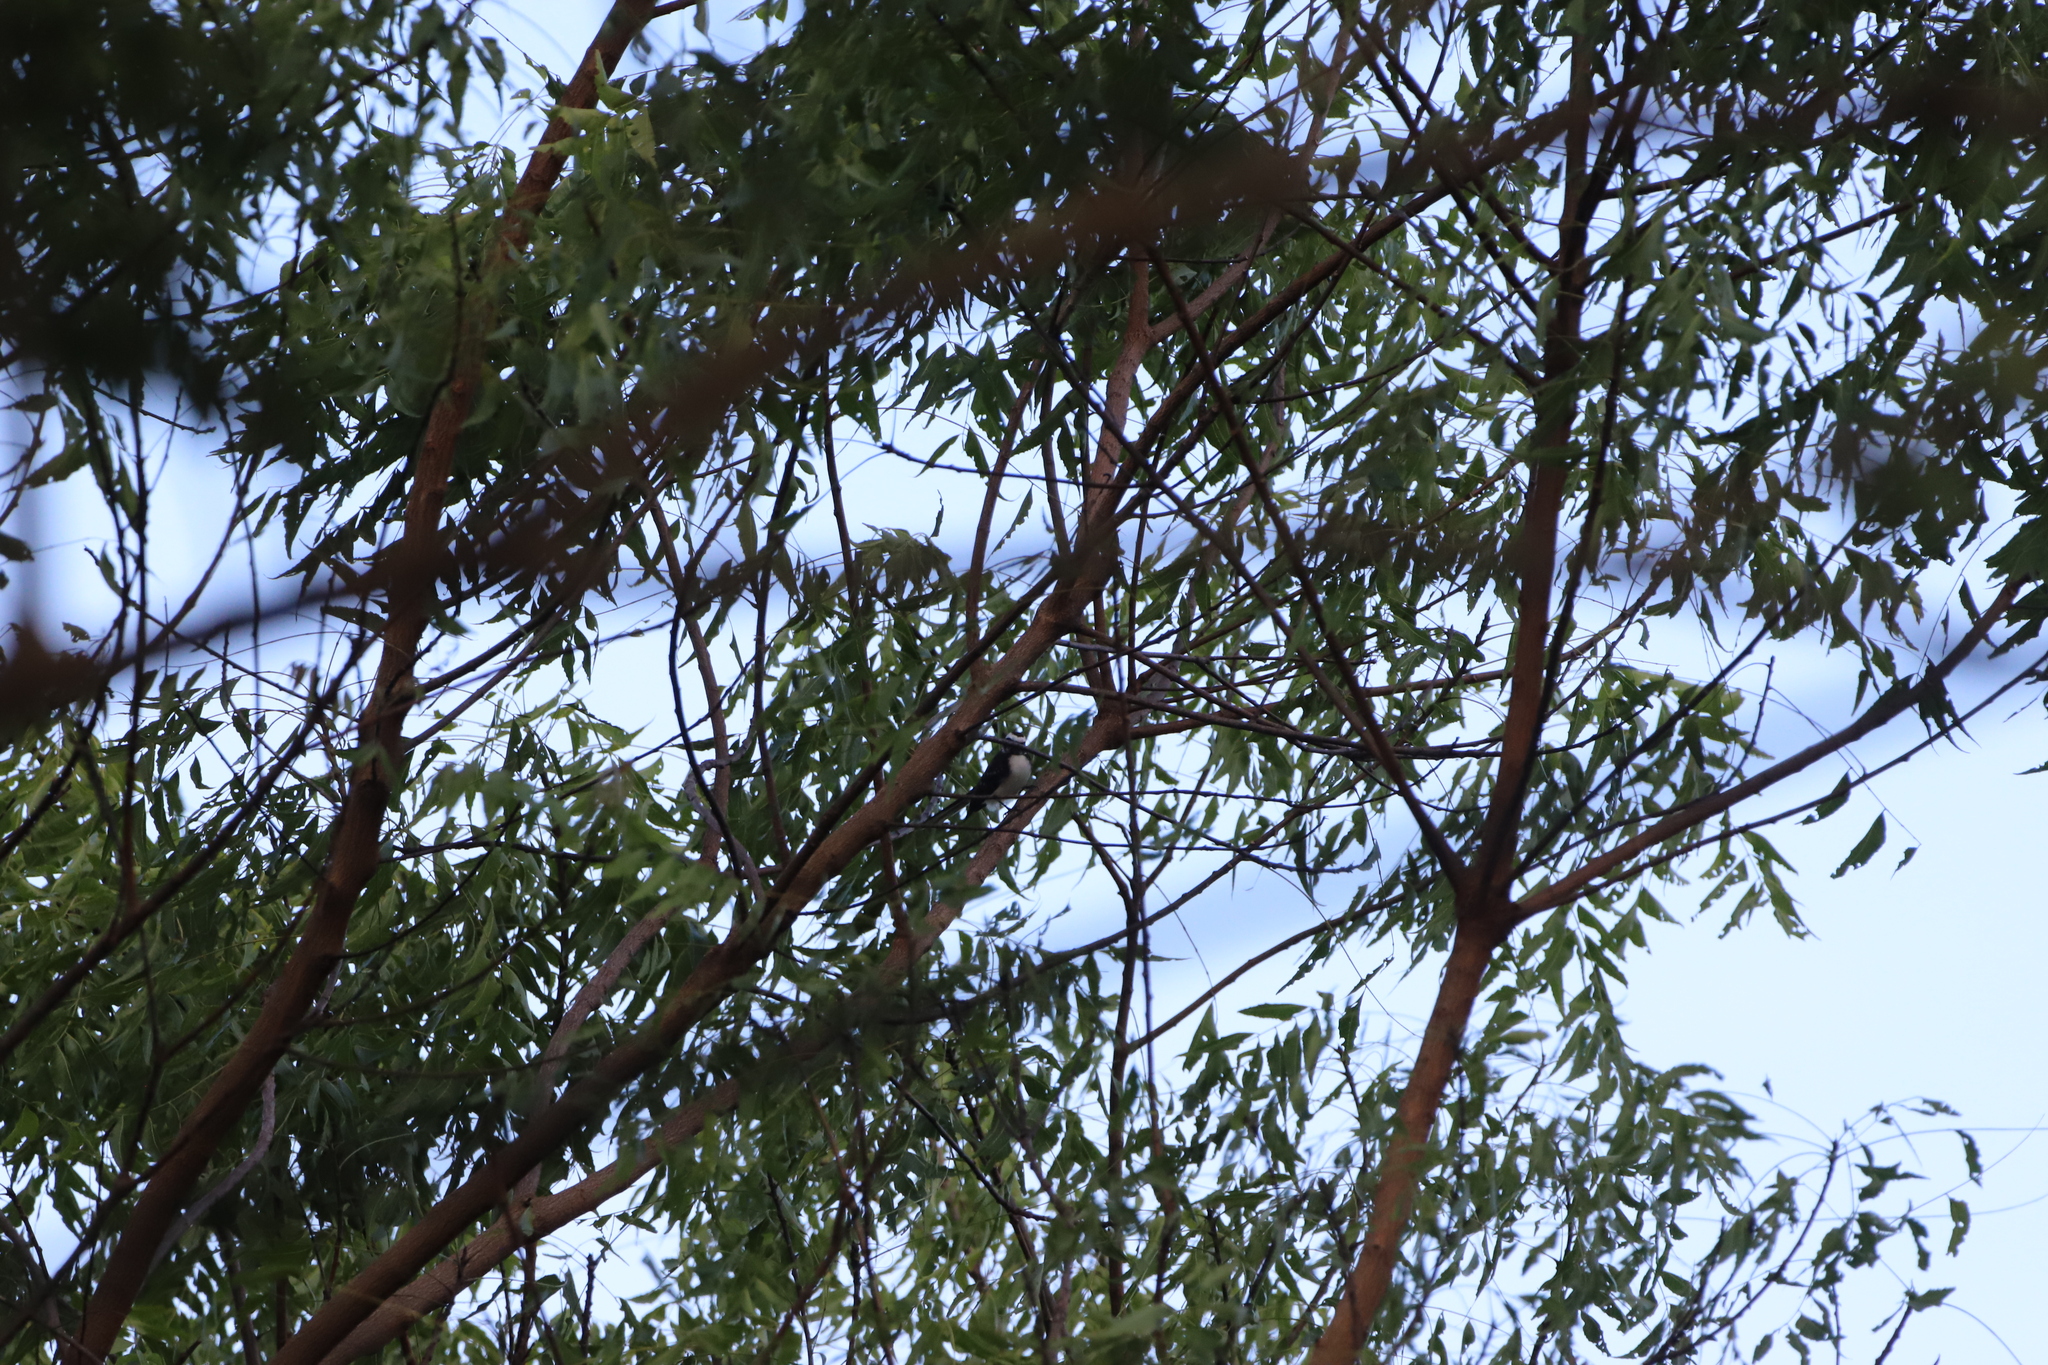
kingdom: Animalia
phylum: Chordata
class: Aves
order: Passeriformes
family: Rhipiduridae
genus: Rhipidura
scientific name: Rhipidura aureola
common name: White-browed fantail
